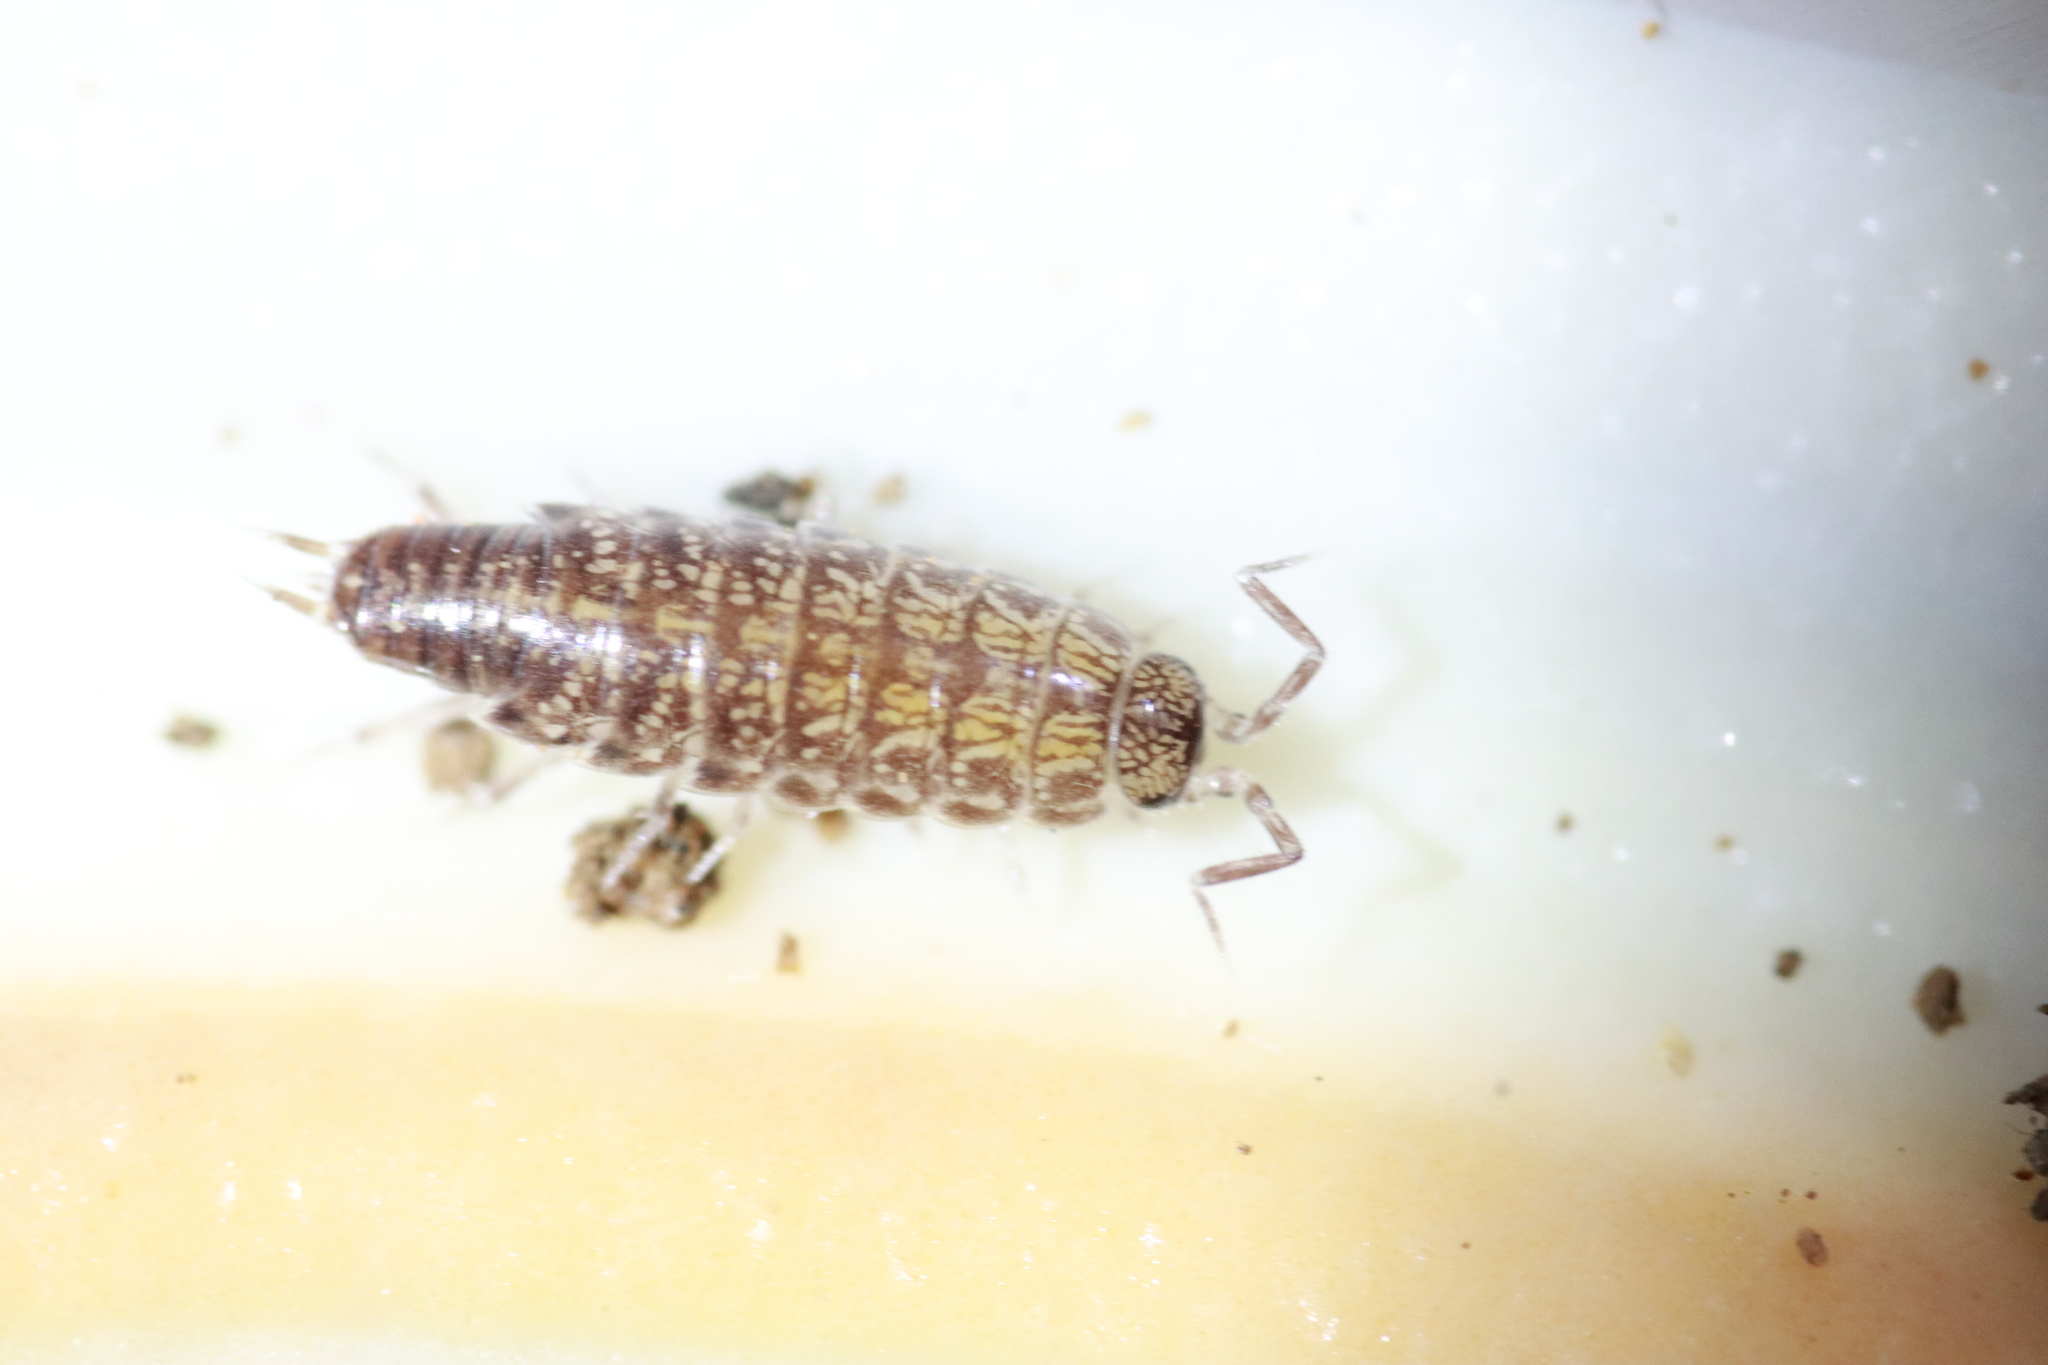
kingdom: Animalia
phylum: Arthropoda
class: Malacostraca
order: Isopoda
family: Philosciidae
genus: Chaetophiloscia
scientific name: Chaetophiloscia sicula
